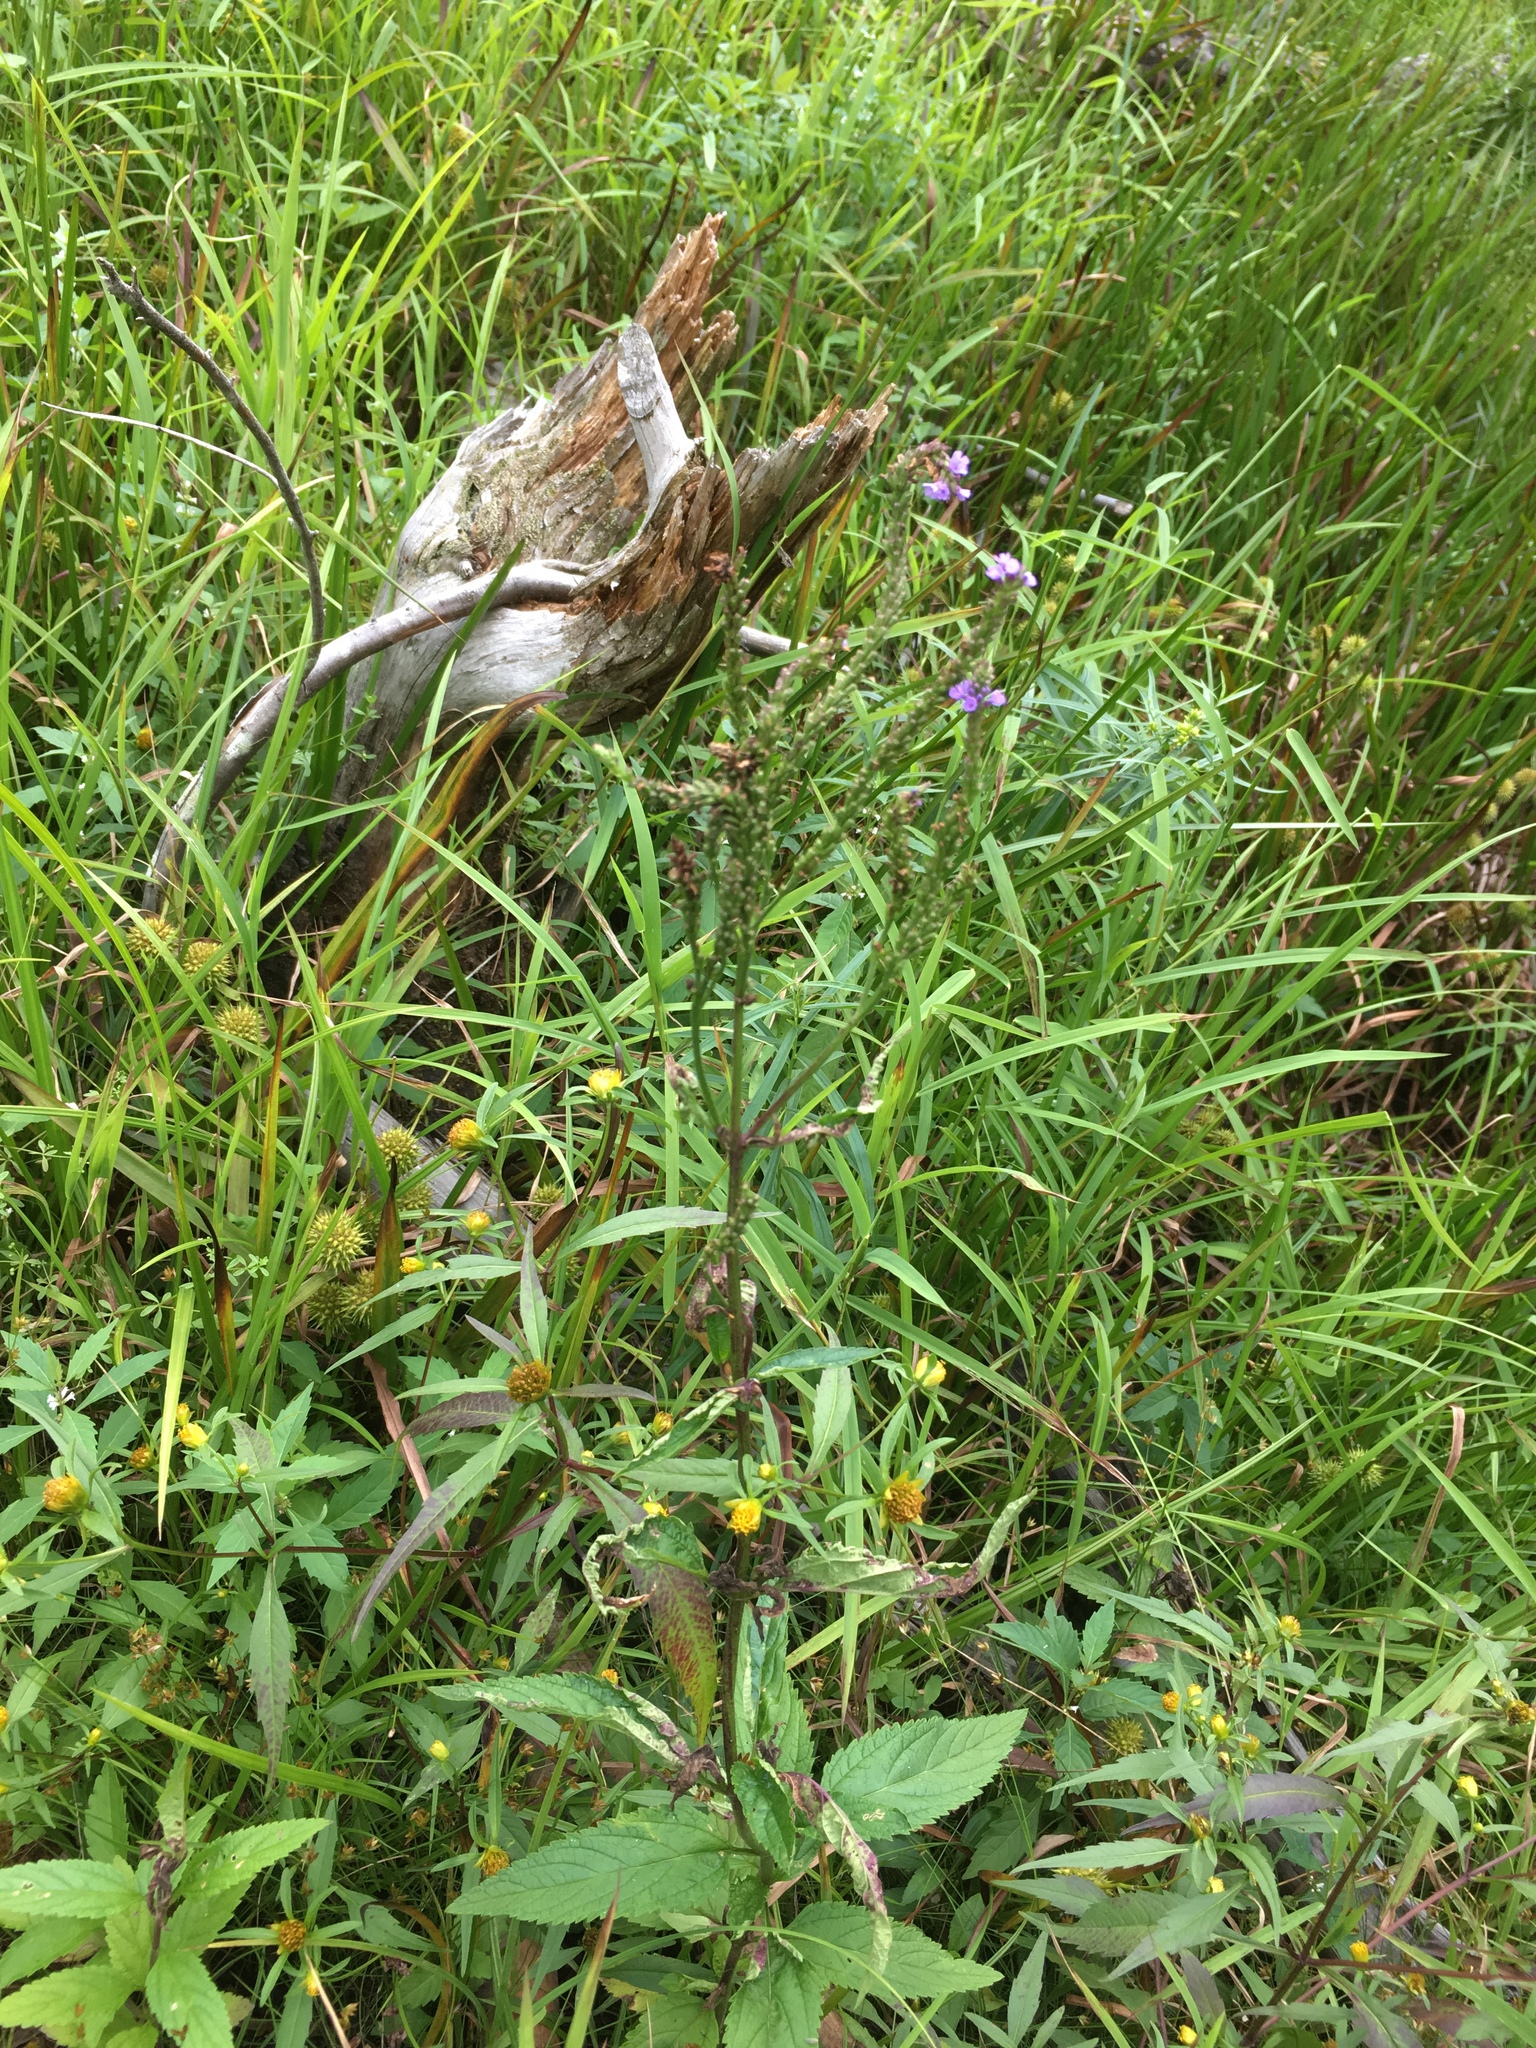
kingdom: Plantae
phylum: Tracheophyta
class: Magnoliopsida
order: Lamiales
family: Verbenaceae
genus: Verbena
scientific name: Verbena hastata
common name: American blue vervain
